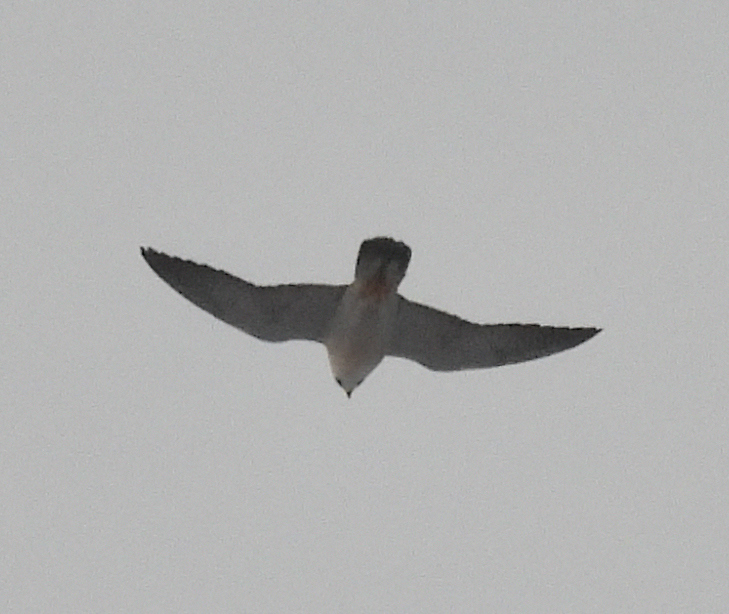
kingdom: Animalia
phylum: Chordata
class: Aves
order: Falconiformes
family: Falconidae
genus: Falco
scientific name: Falco peregrinus
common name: Peregrine falcon
